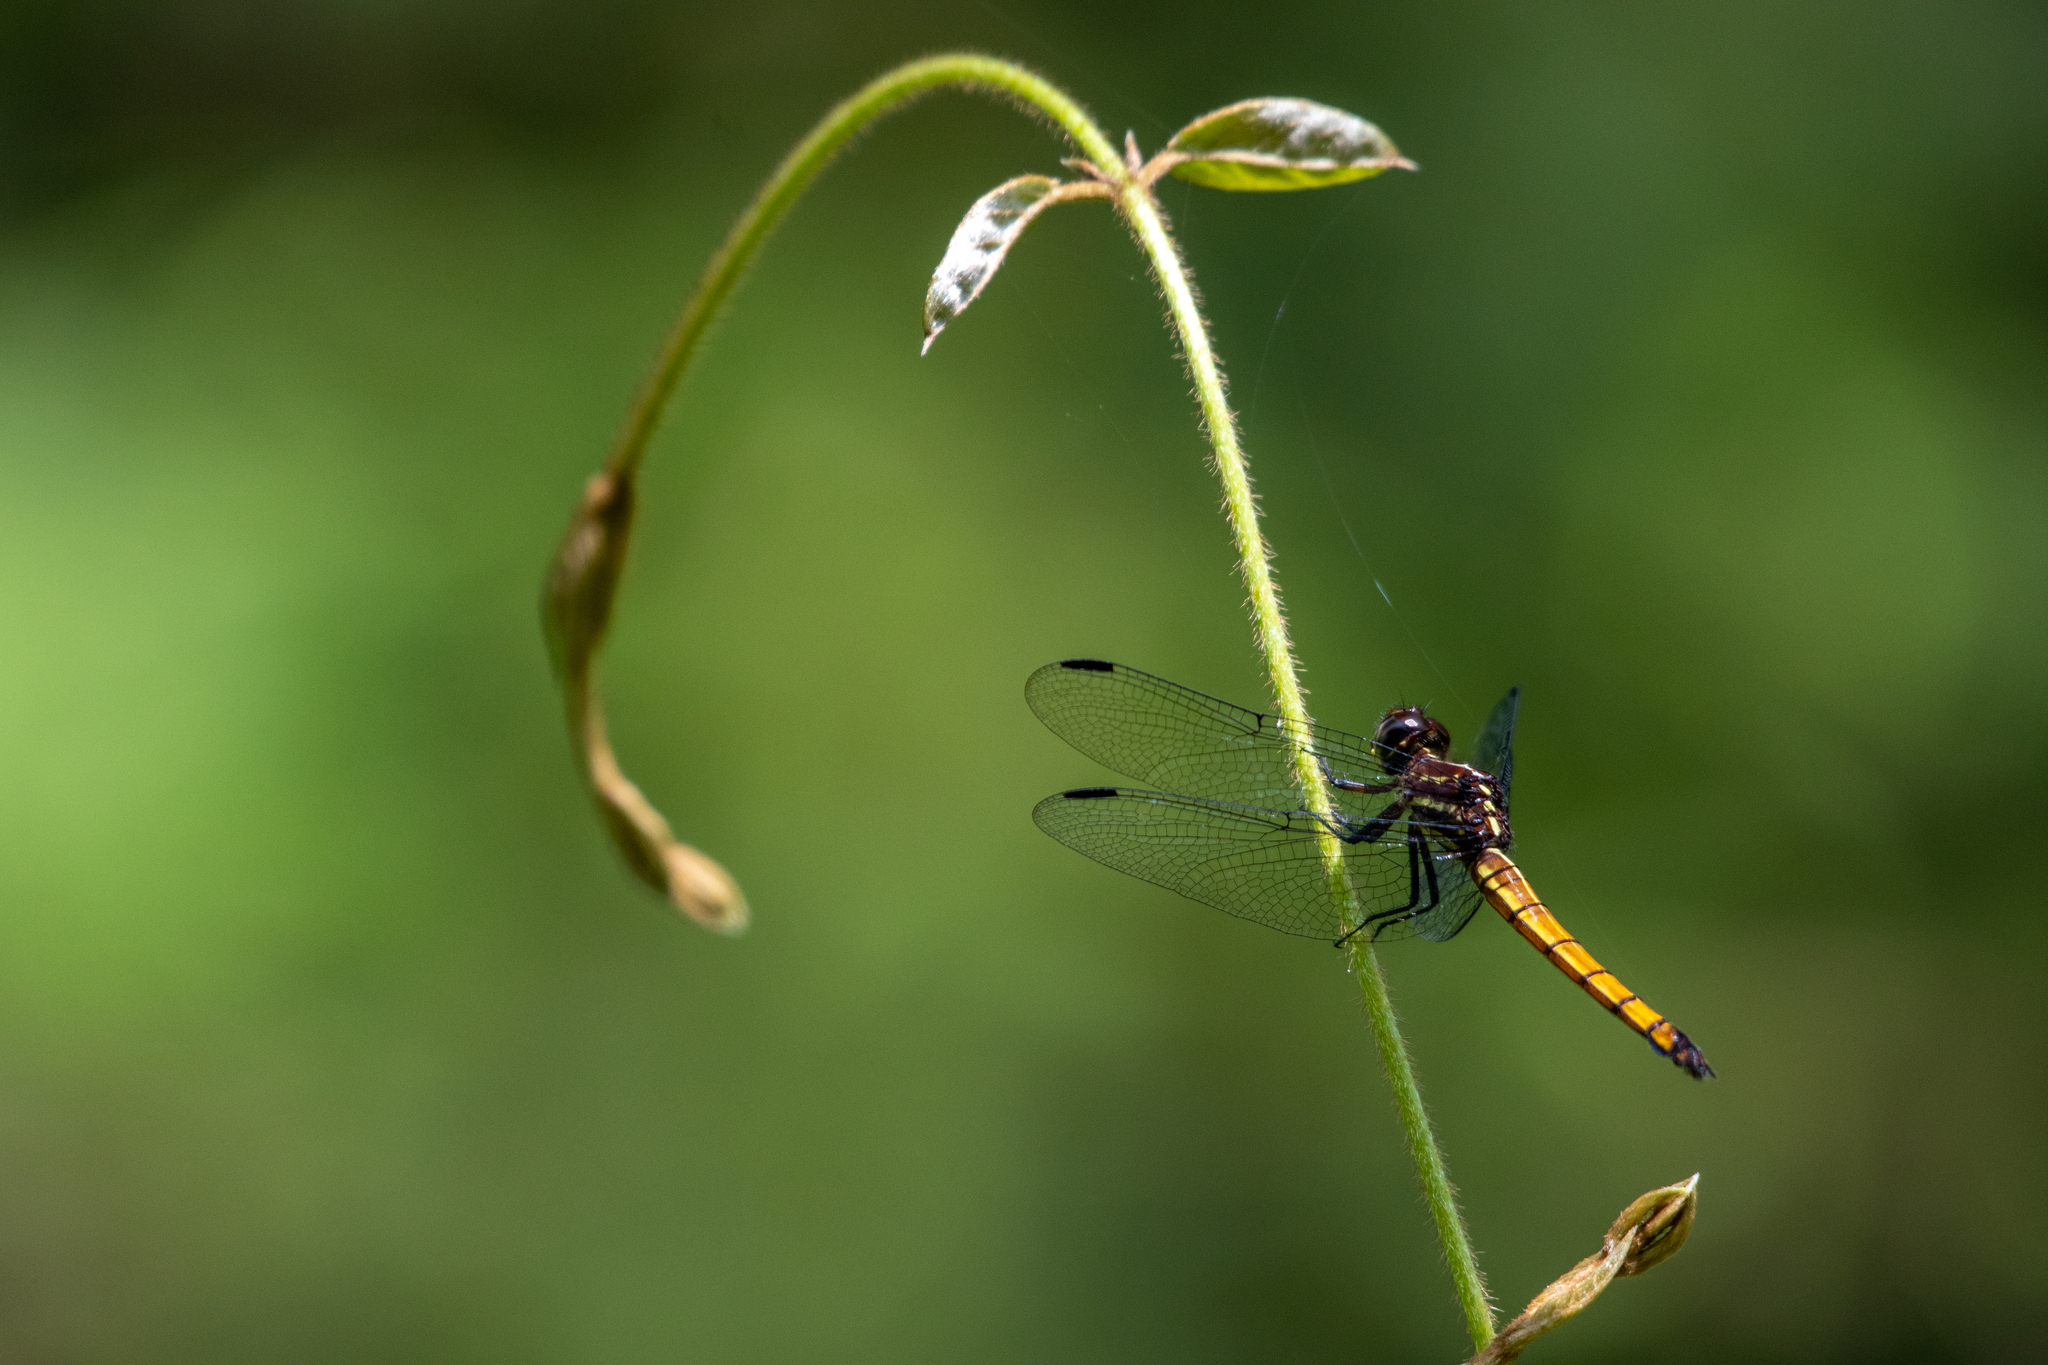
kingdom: Animalia
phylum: Arthropoda
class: Insecta
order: Odonata
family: Libellulidae
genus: Cannaphila
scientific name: Cannaphila vibex
